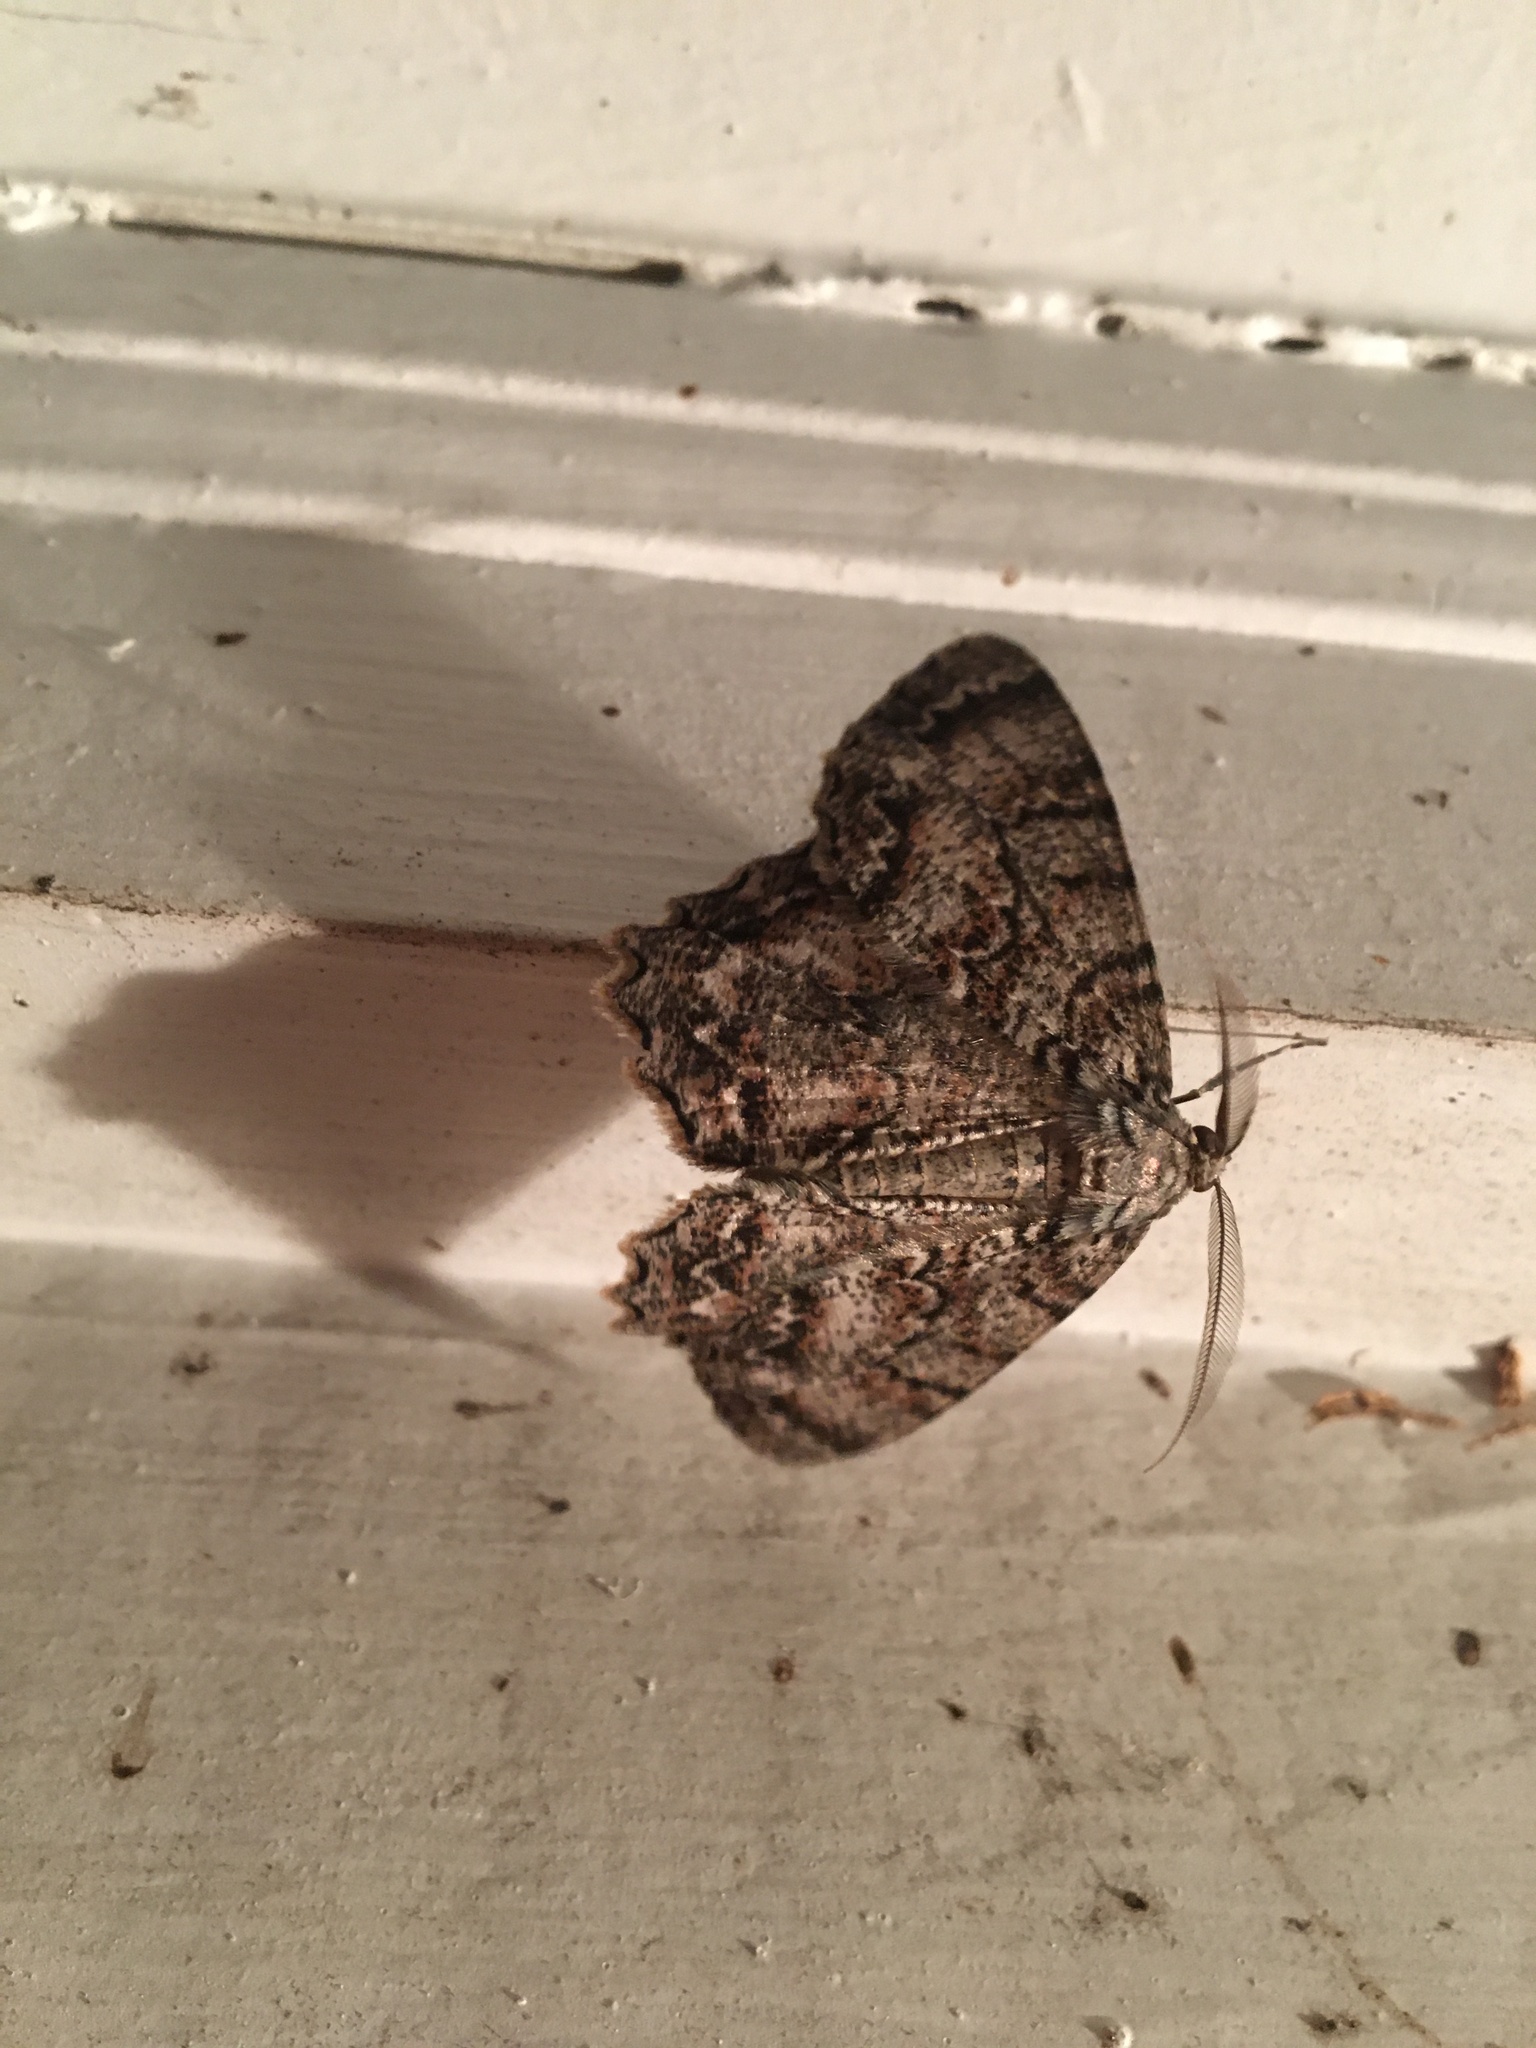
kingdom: Animalia
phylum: Arthropoda
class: Insecta
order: Lepidoptera
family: Geometridae
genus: Epimecis
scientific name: Epimecis hortaria
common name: Tulip-tree beauty
